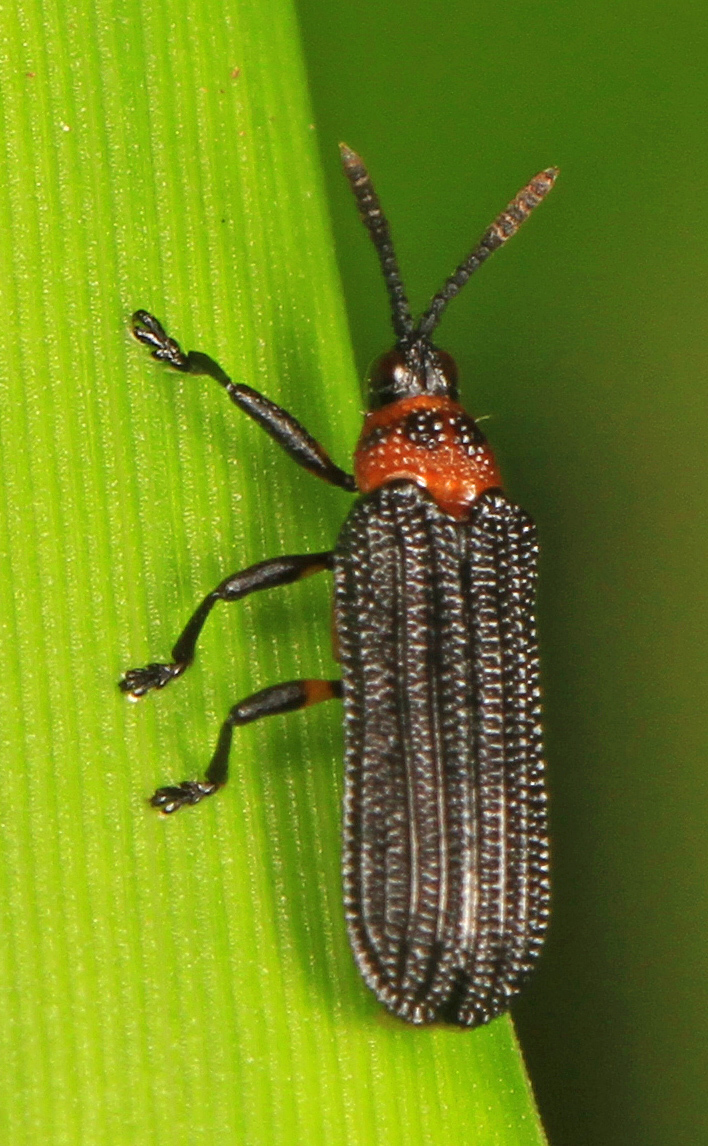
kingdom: Animalia
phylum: Arthropoda
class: Insecta
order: Coleoptera
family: Chrysomelidae
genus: Chalepus
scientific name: Chalepus bicolor
